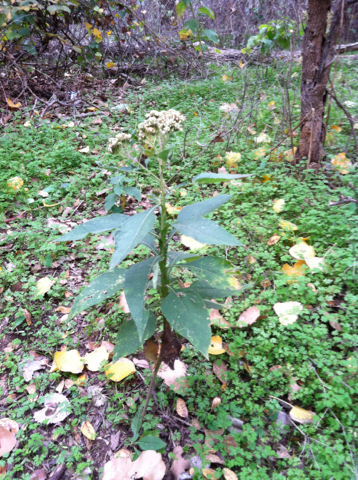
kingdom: Plantae
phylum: Tracheophyta
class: Magnoliopsida
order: Asterales
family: Asteraceae
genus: Verbesina
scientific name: Verbesina virginica
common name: Frostweed
